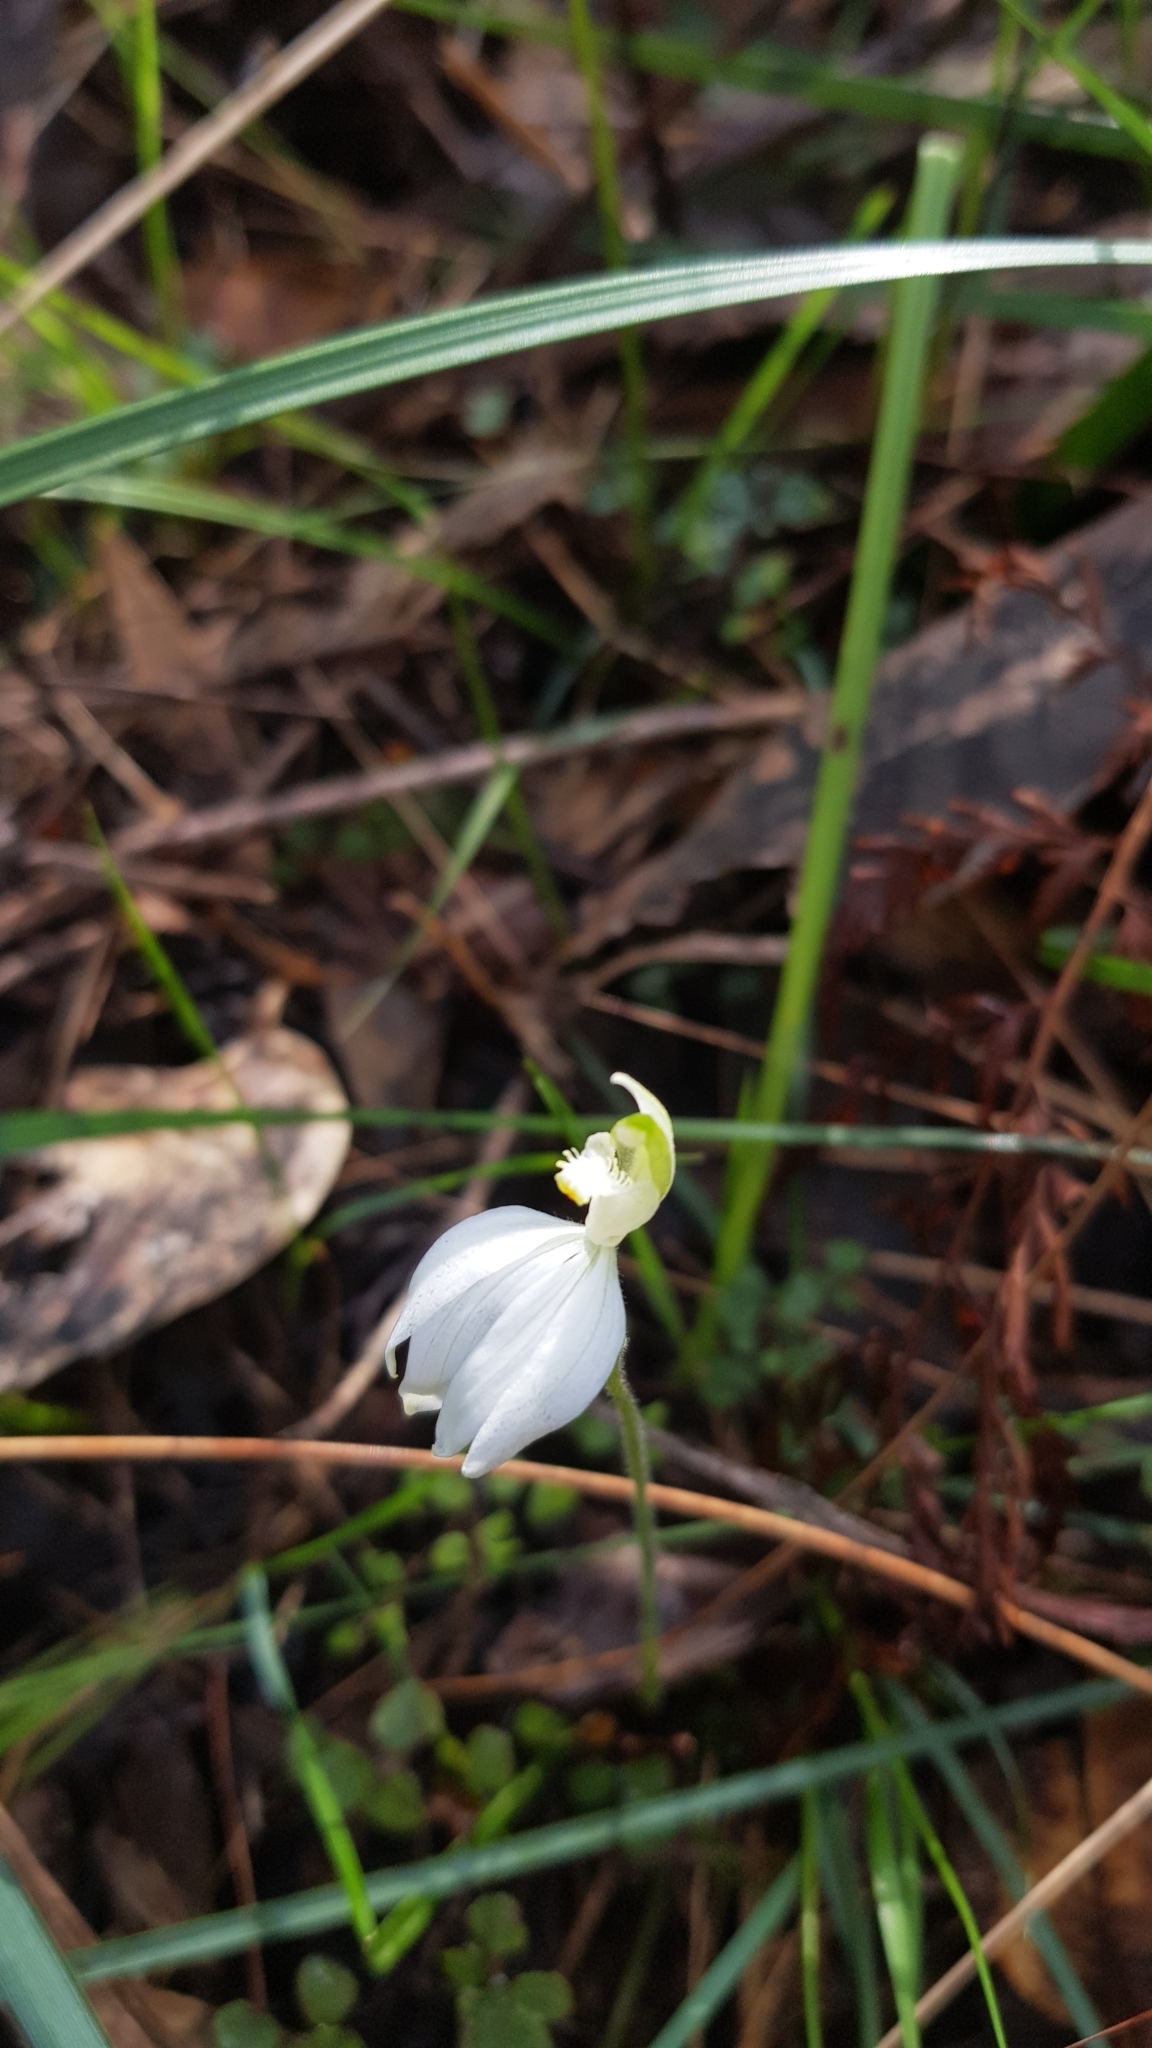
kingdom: Plantae
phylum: Tracheophyta
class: Liliopsida
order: Asparagales
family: Orchidaceae
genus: Caladenia
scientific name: Caladenia catenata
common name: White caladenia
